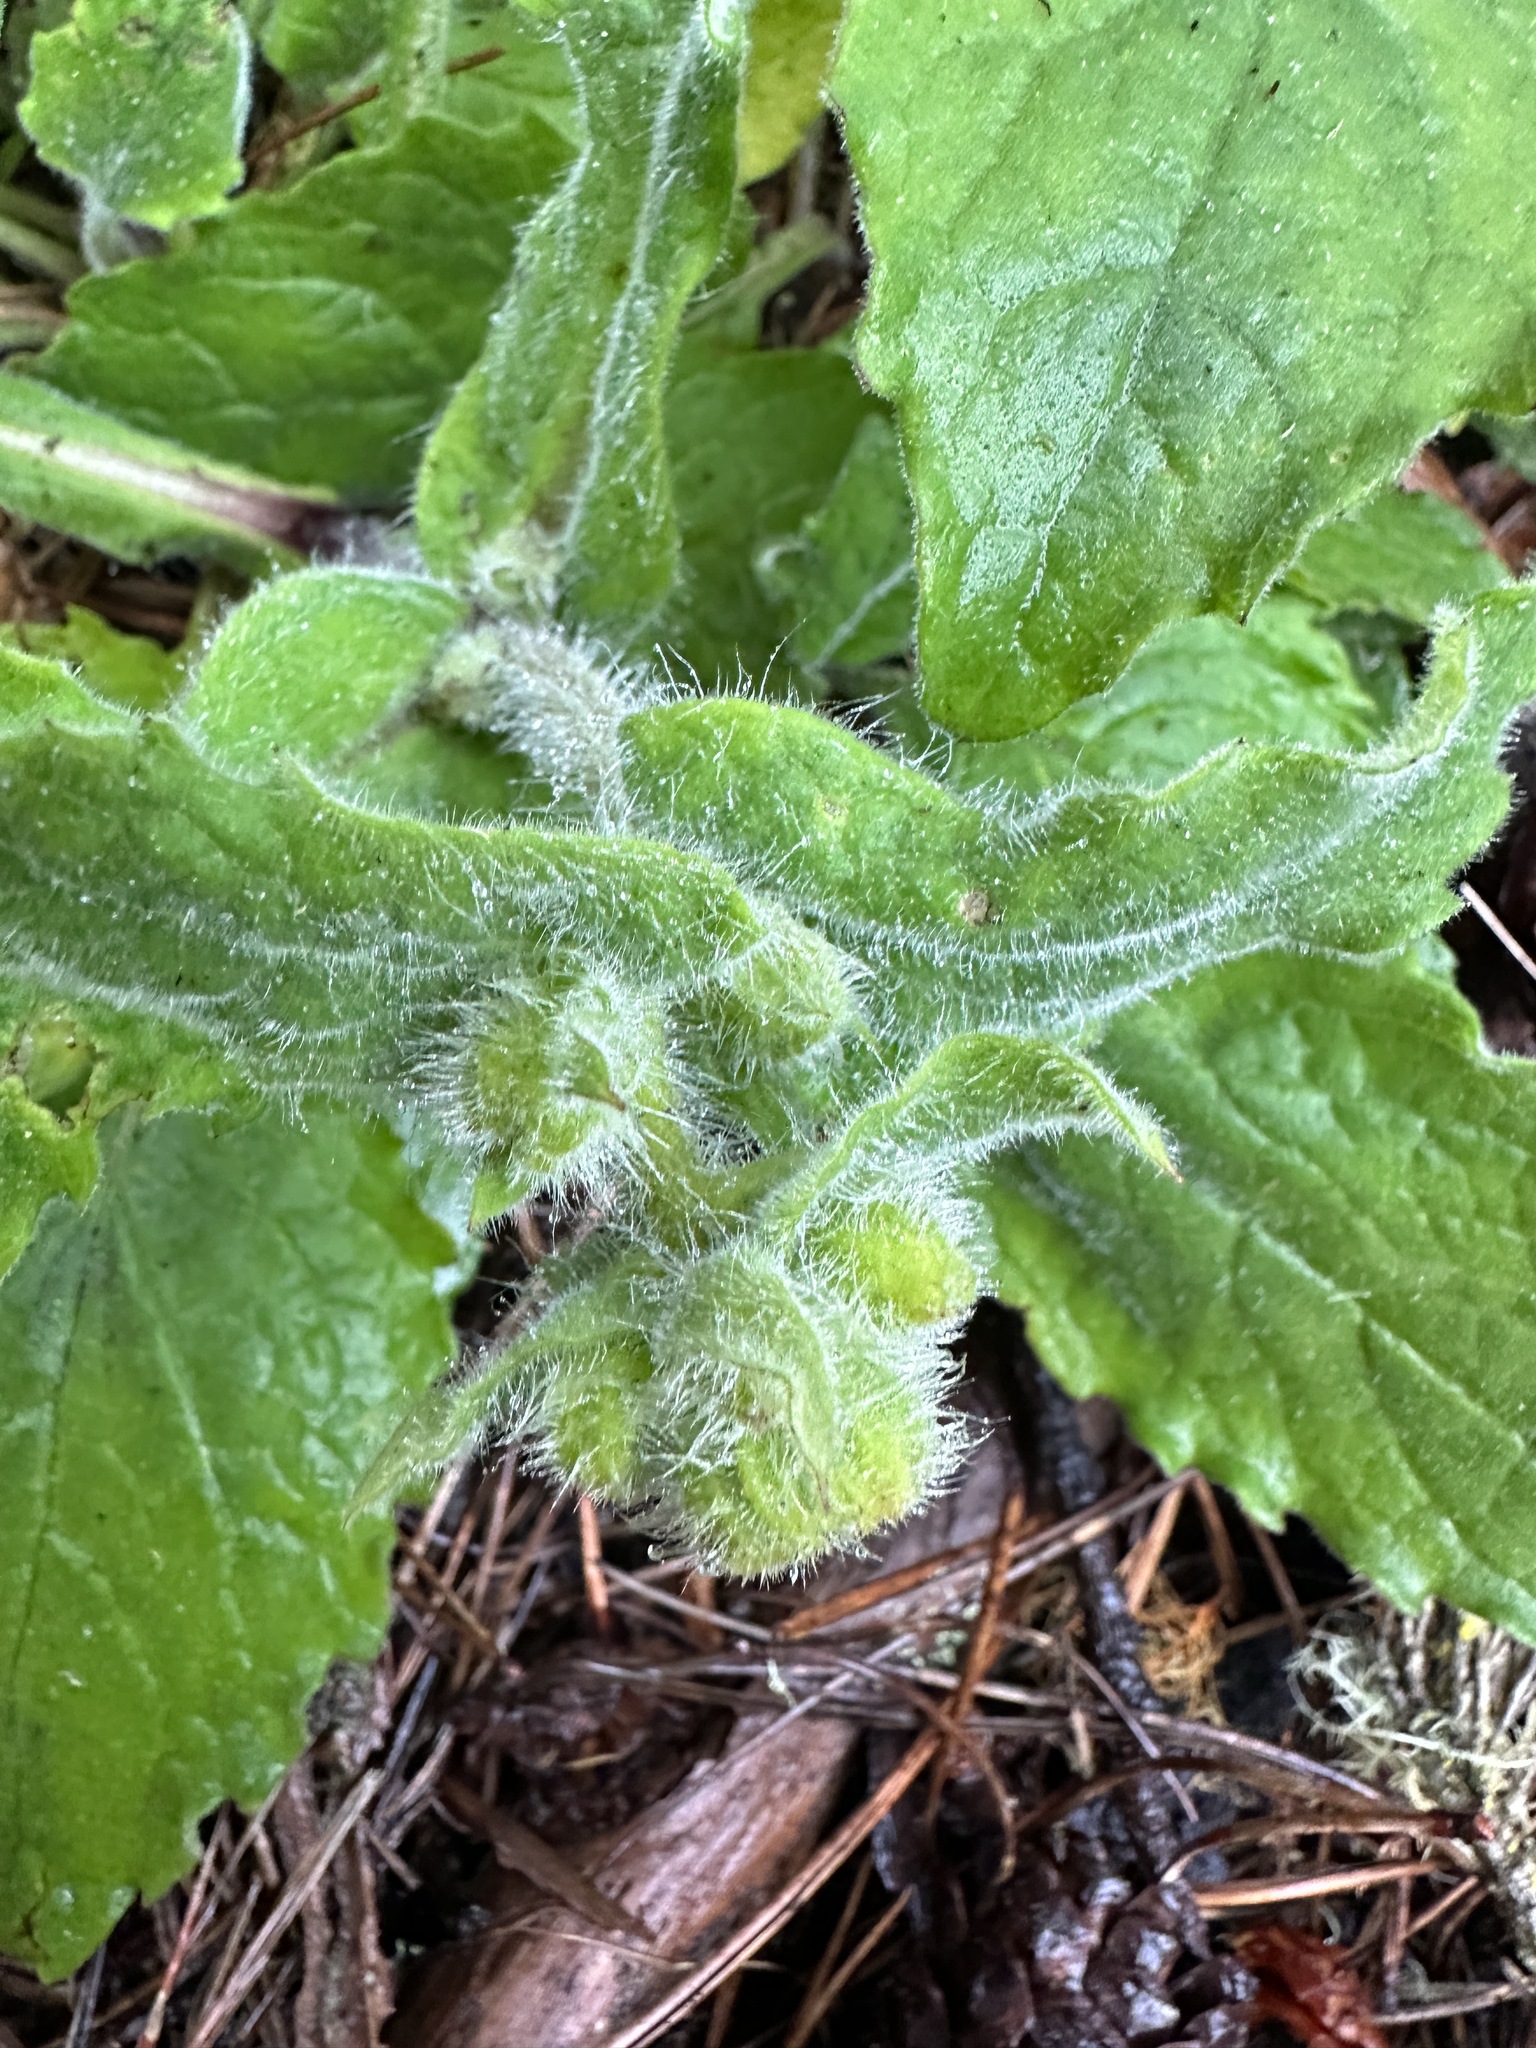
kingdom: Plantae
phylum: Tracheophyta
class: Magnoliopsida
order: Asterales
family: Asteraceae
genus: Arnica
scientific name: Arnica discoidea
